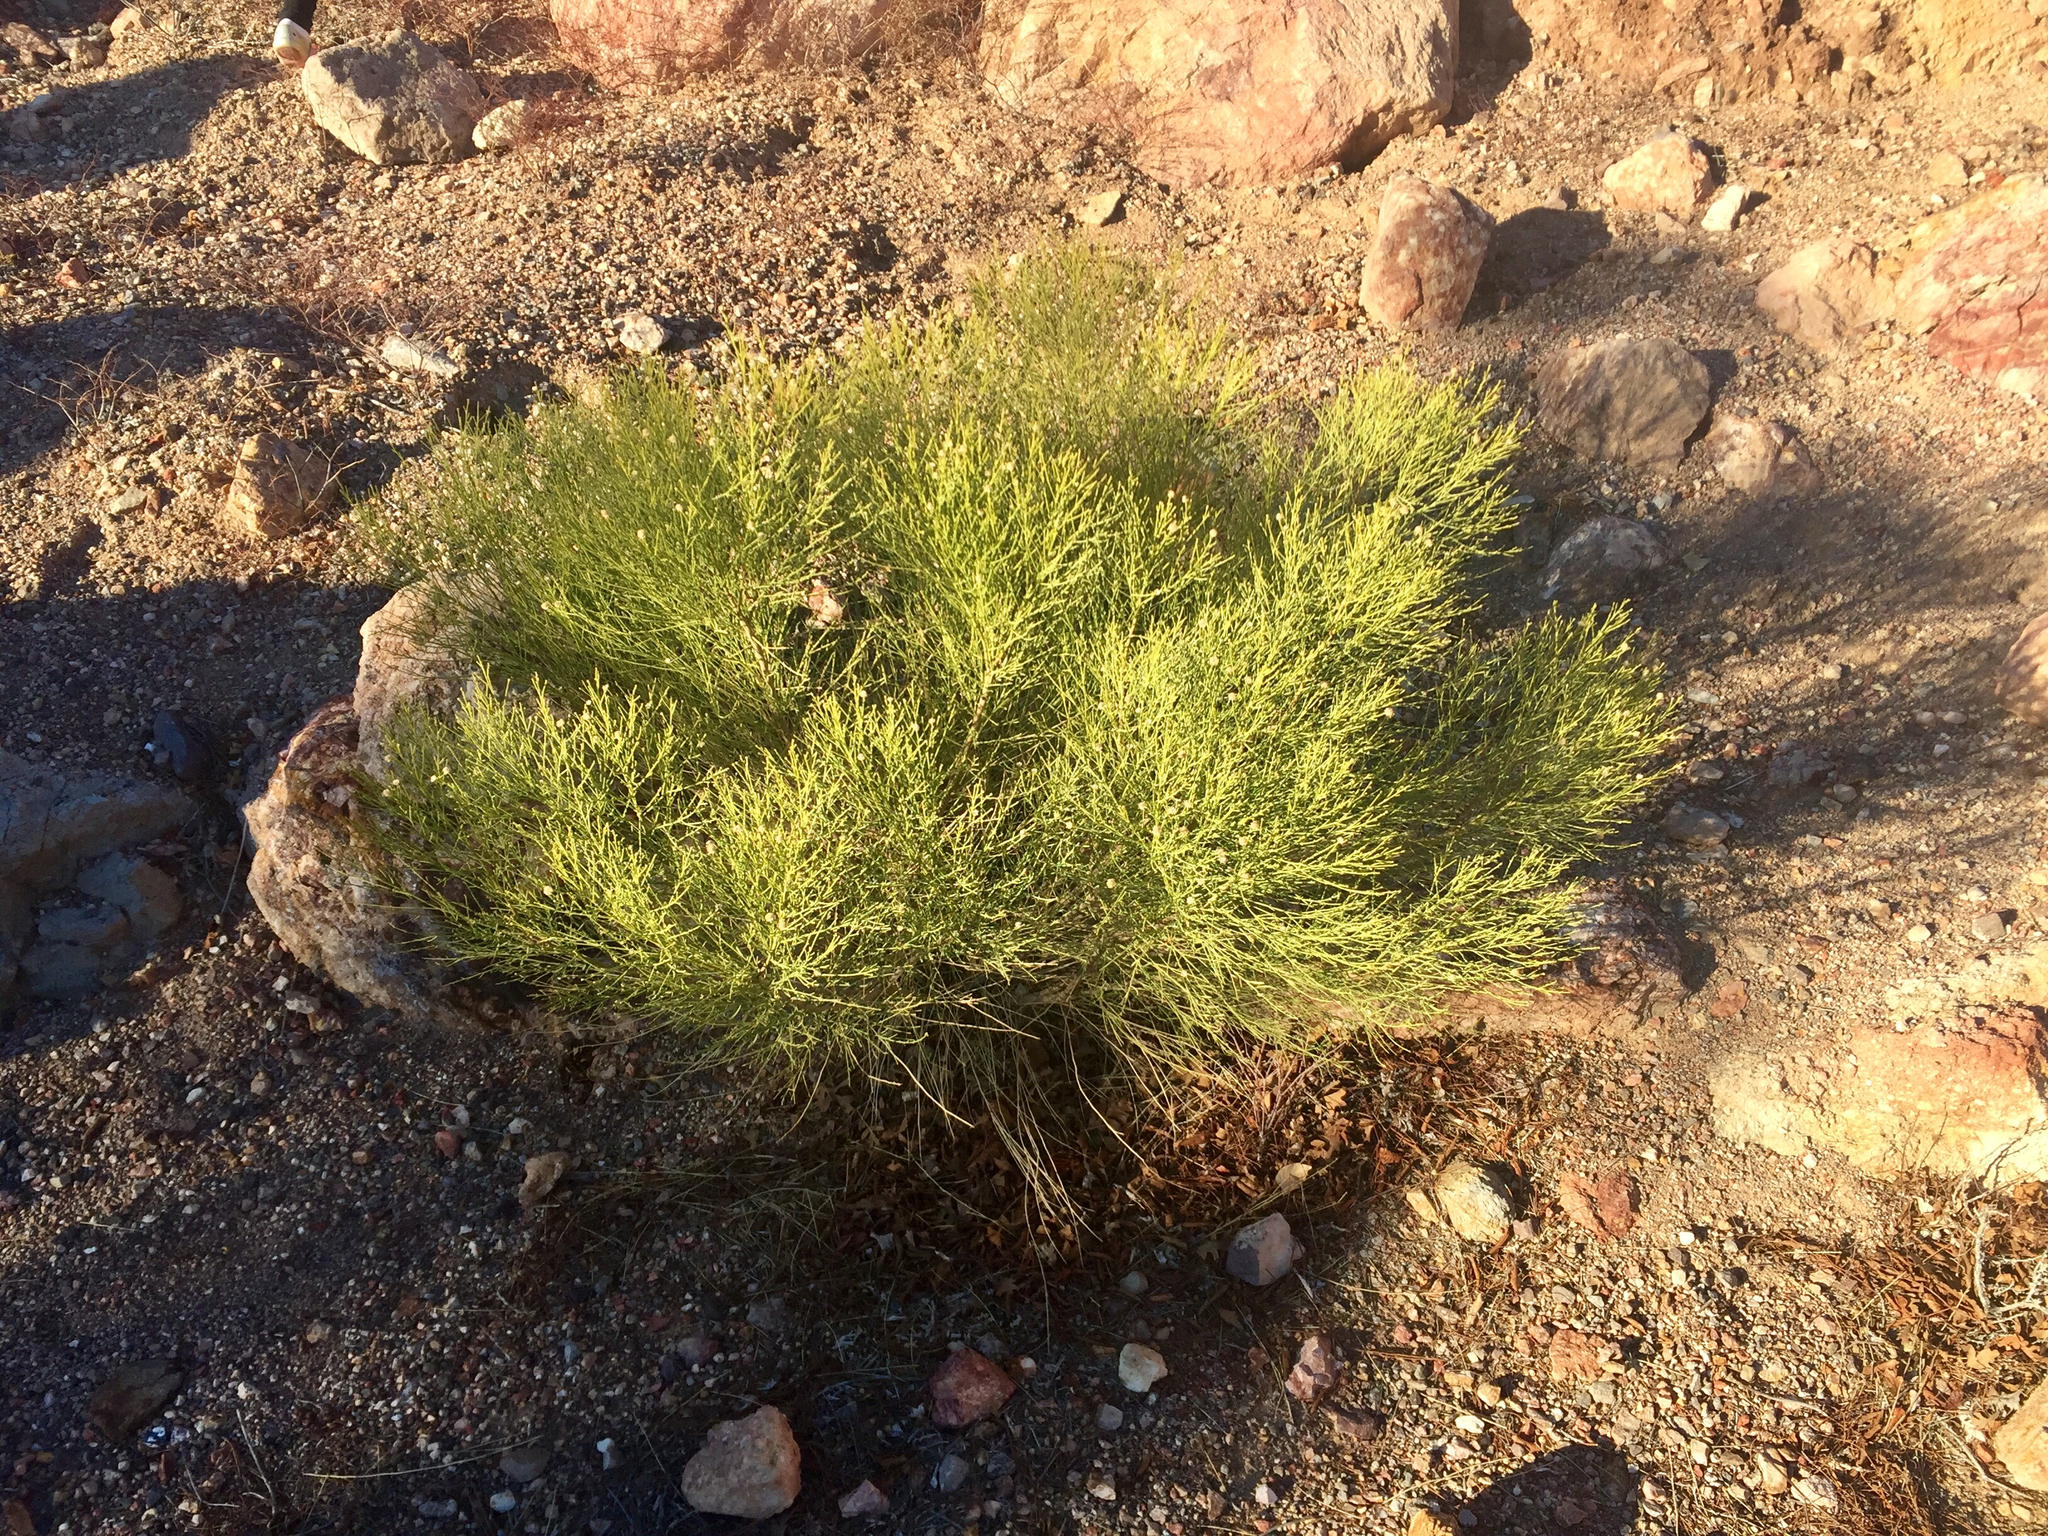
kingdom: Plantae
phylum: Tracheophyta
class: Magnoliopsida
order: Asterales
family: Asteraceae
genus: Baccharis
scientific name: Baccharis sarothroides
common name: Desert-broom
